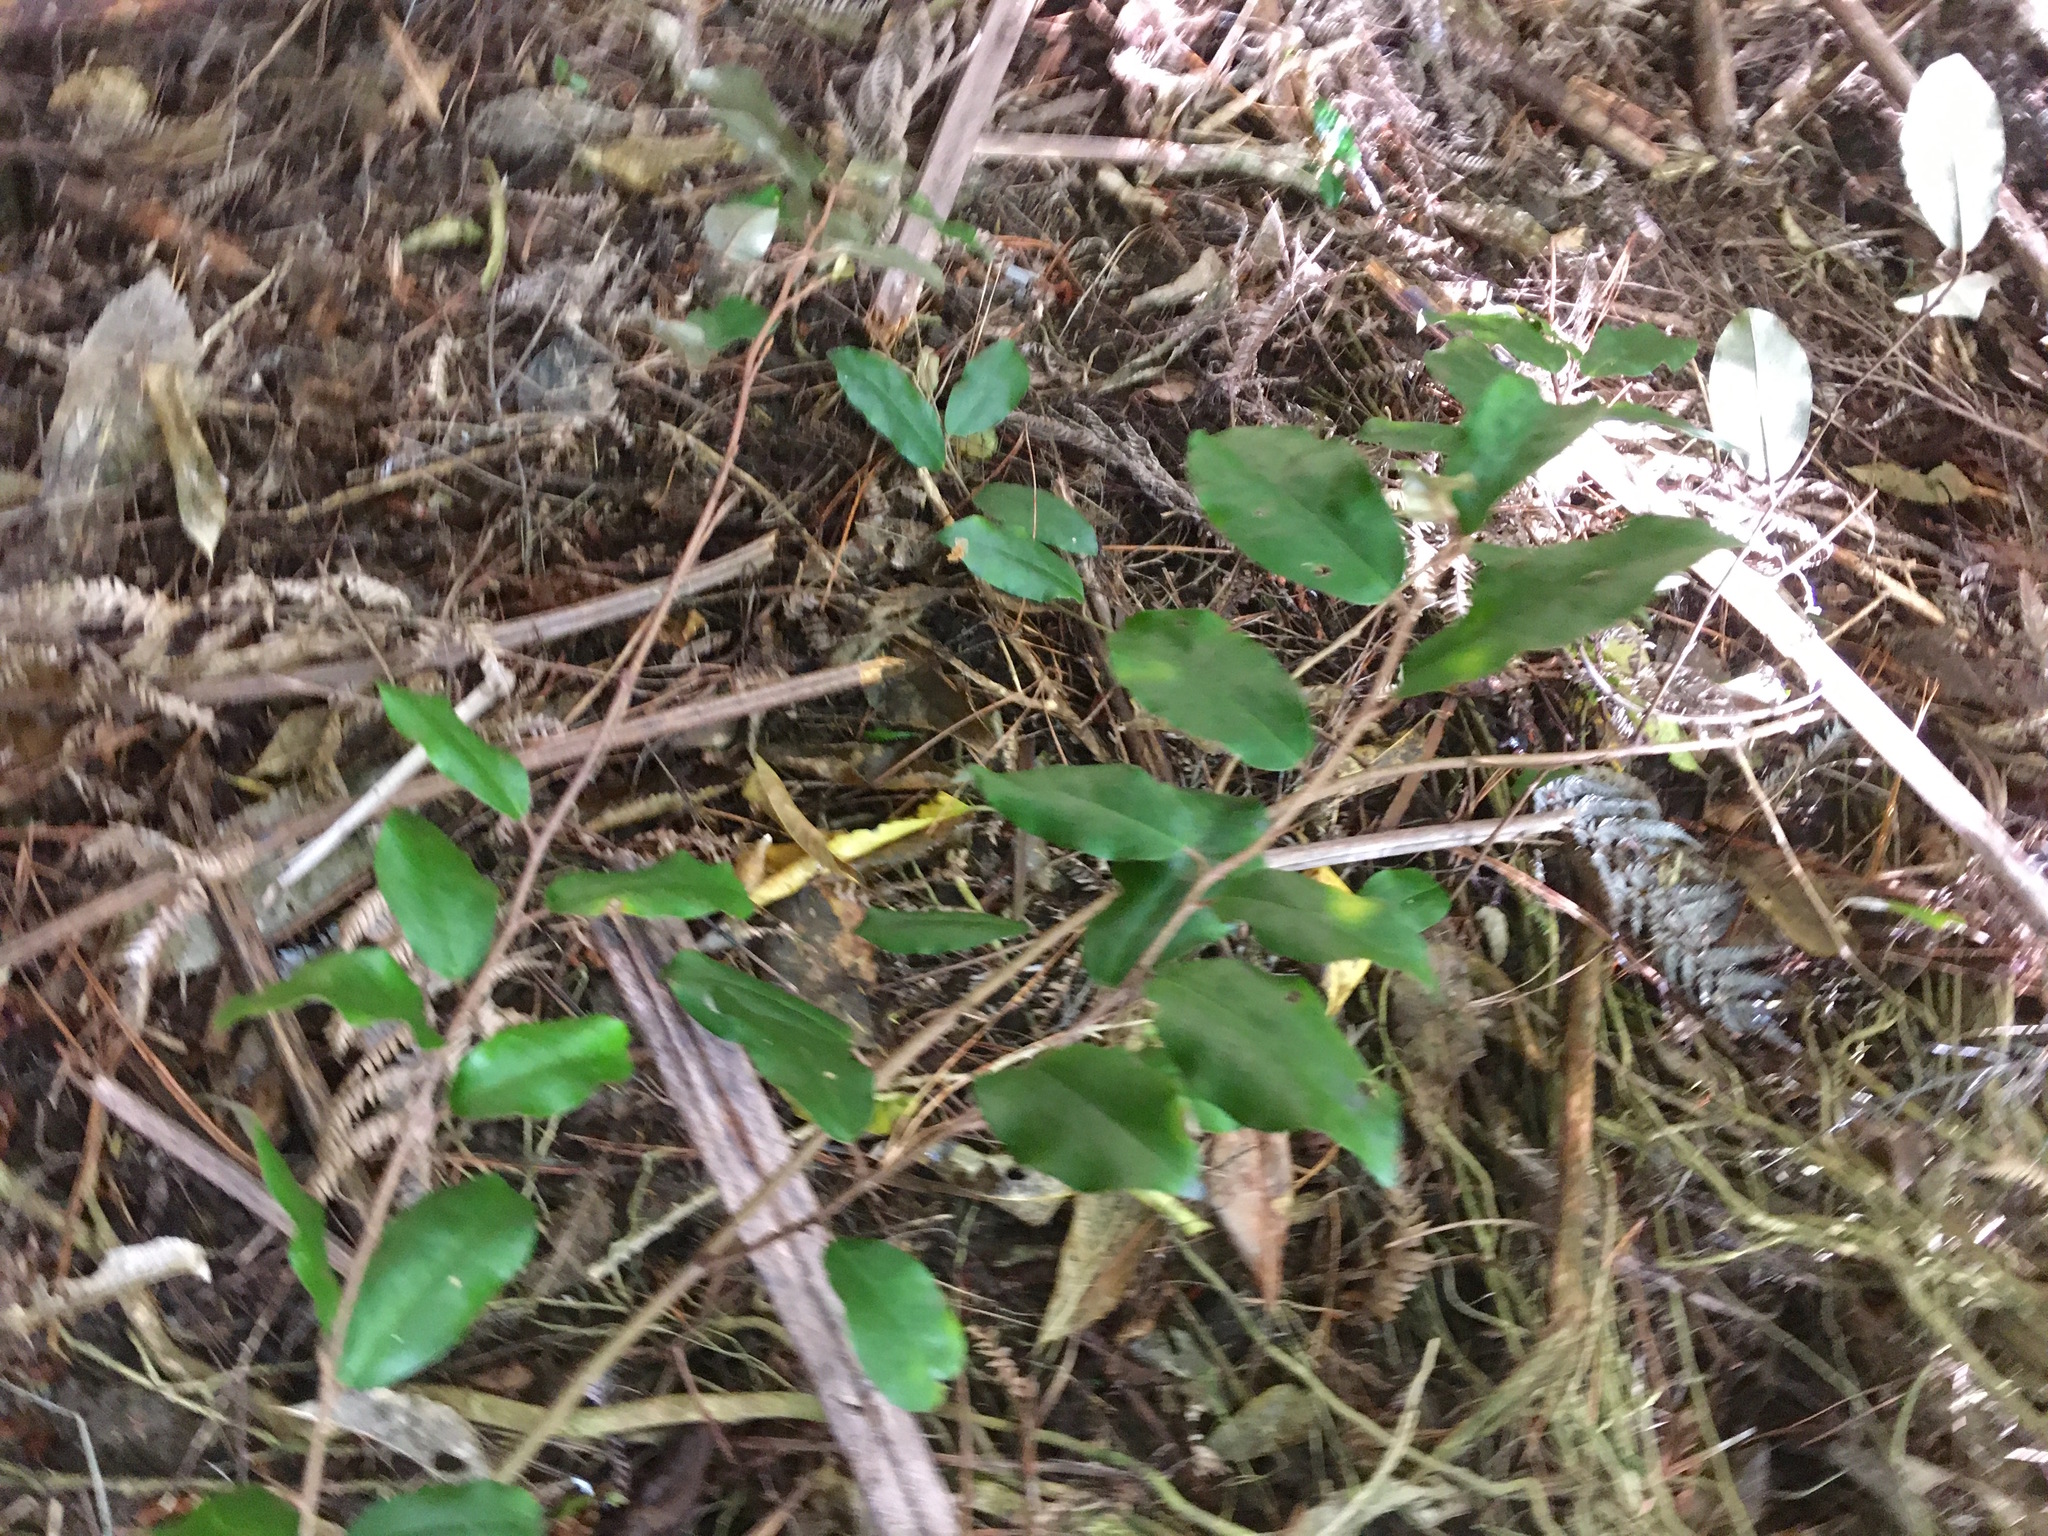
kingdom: Plantae
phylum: Tracheophyta
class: Magnoliopsida
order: Rosales
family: Elaeagnaceae
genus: Elaeagnus
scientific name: Elaeagnus reflexa
